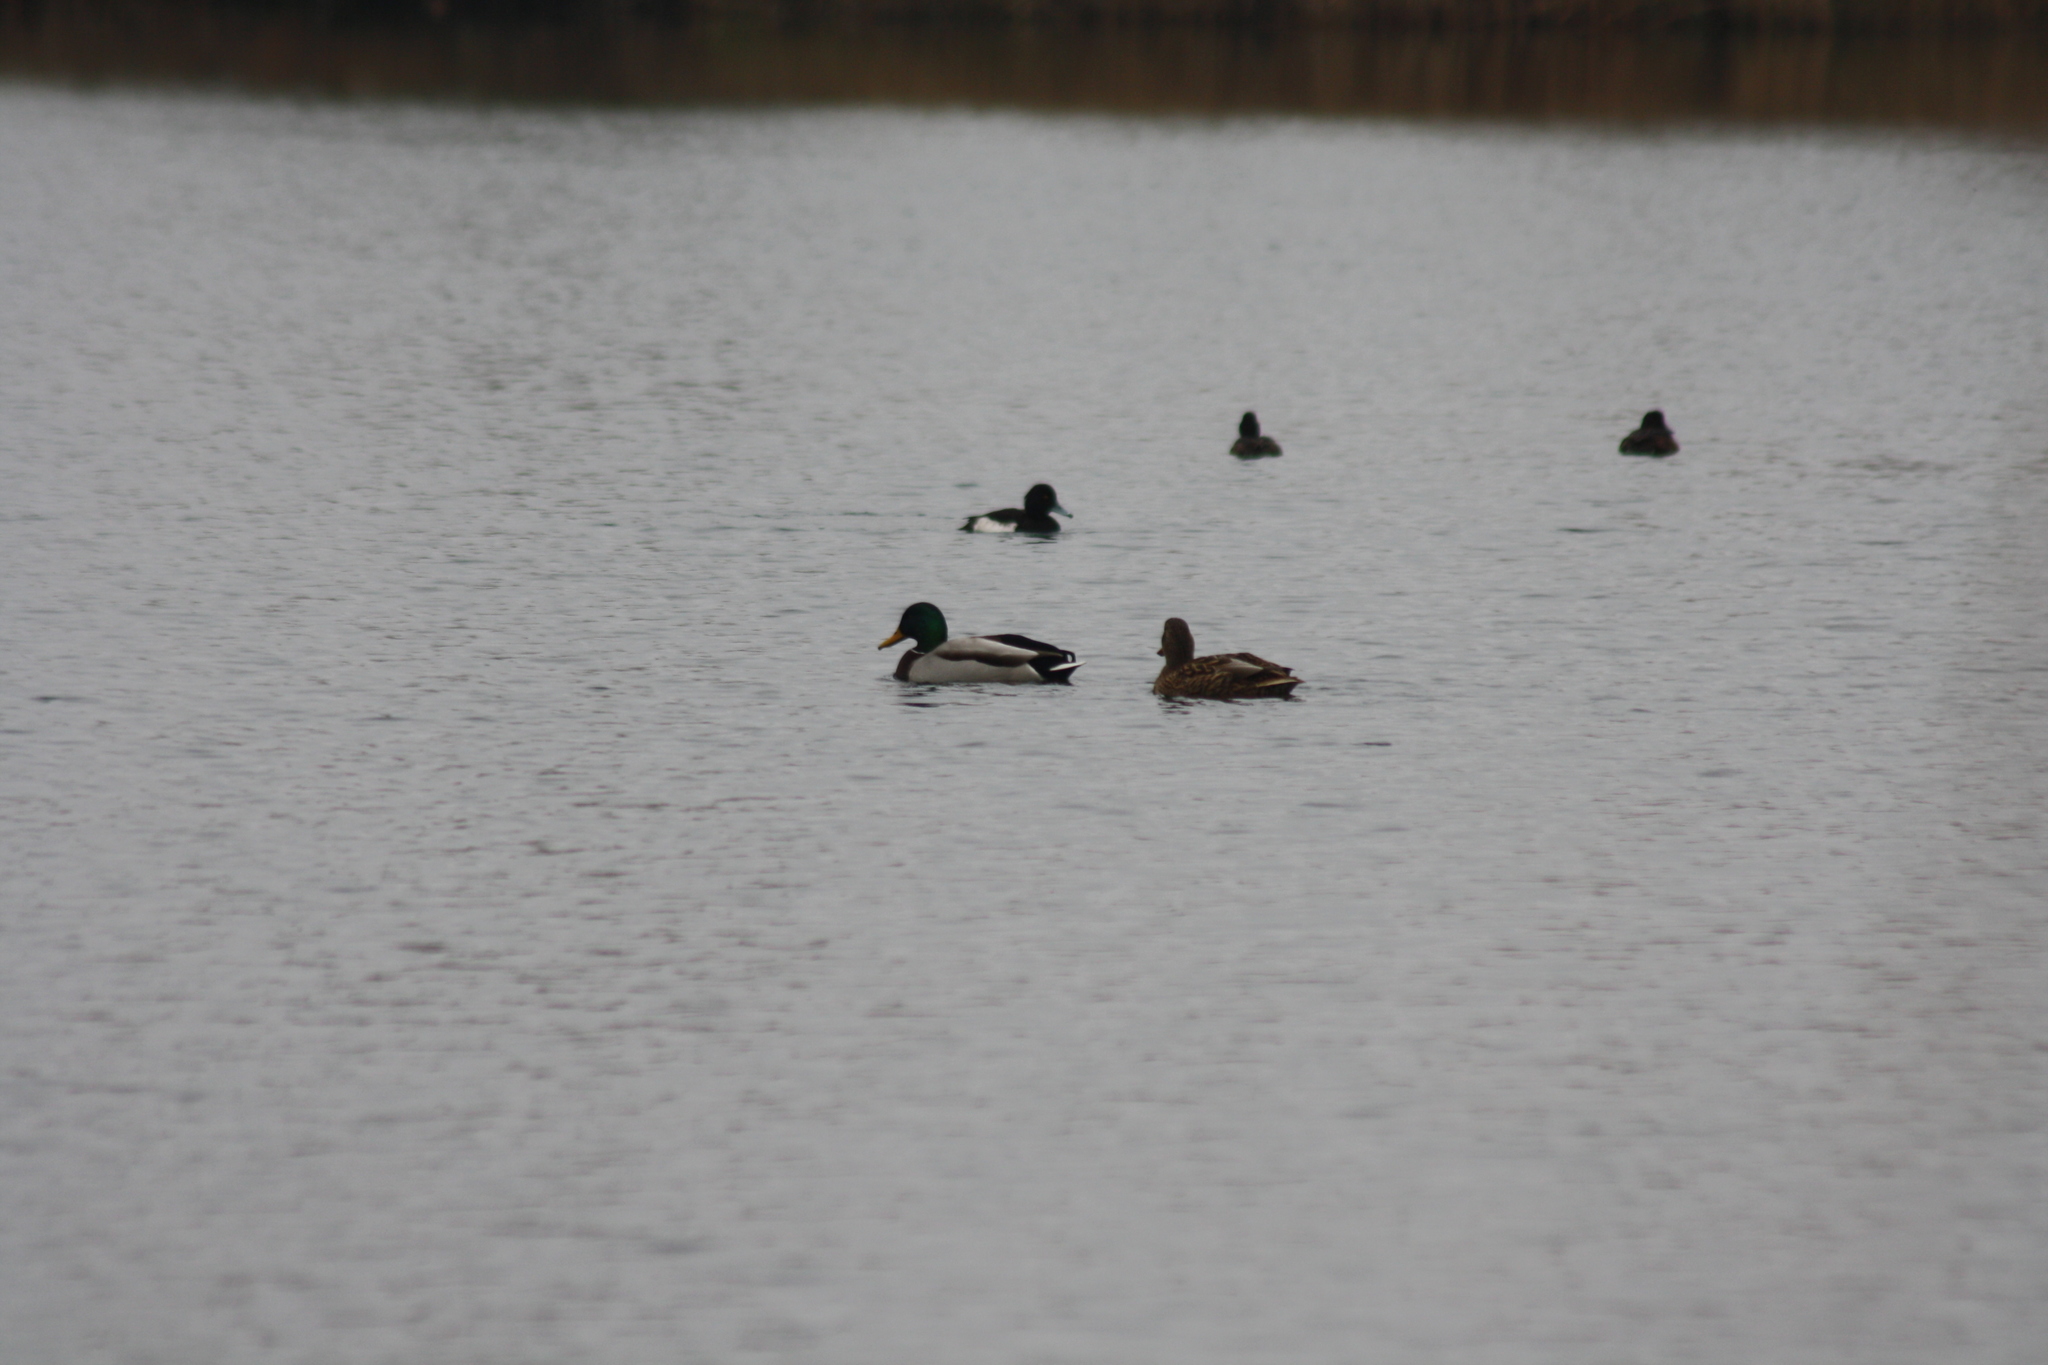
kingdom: Animalia
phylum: Chordata
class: Aves
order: Anseriformes
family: Anatidae
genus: Aythya
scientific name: Aythya fuligula
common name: Tufted duck
